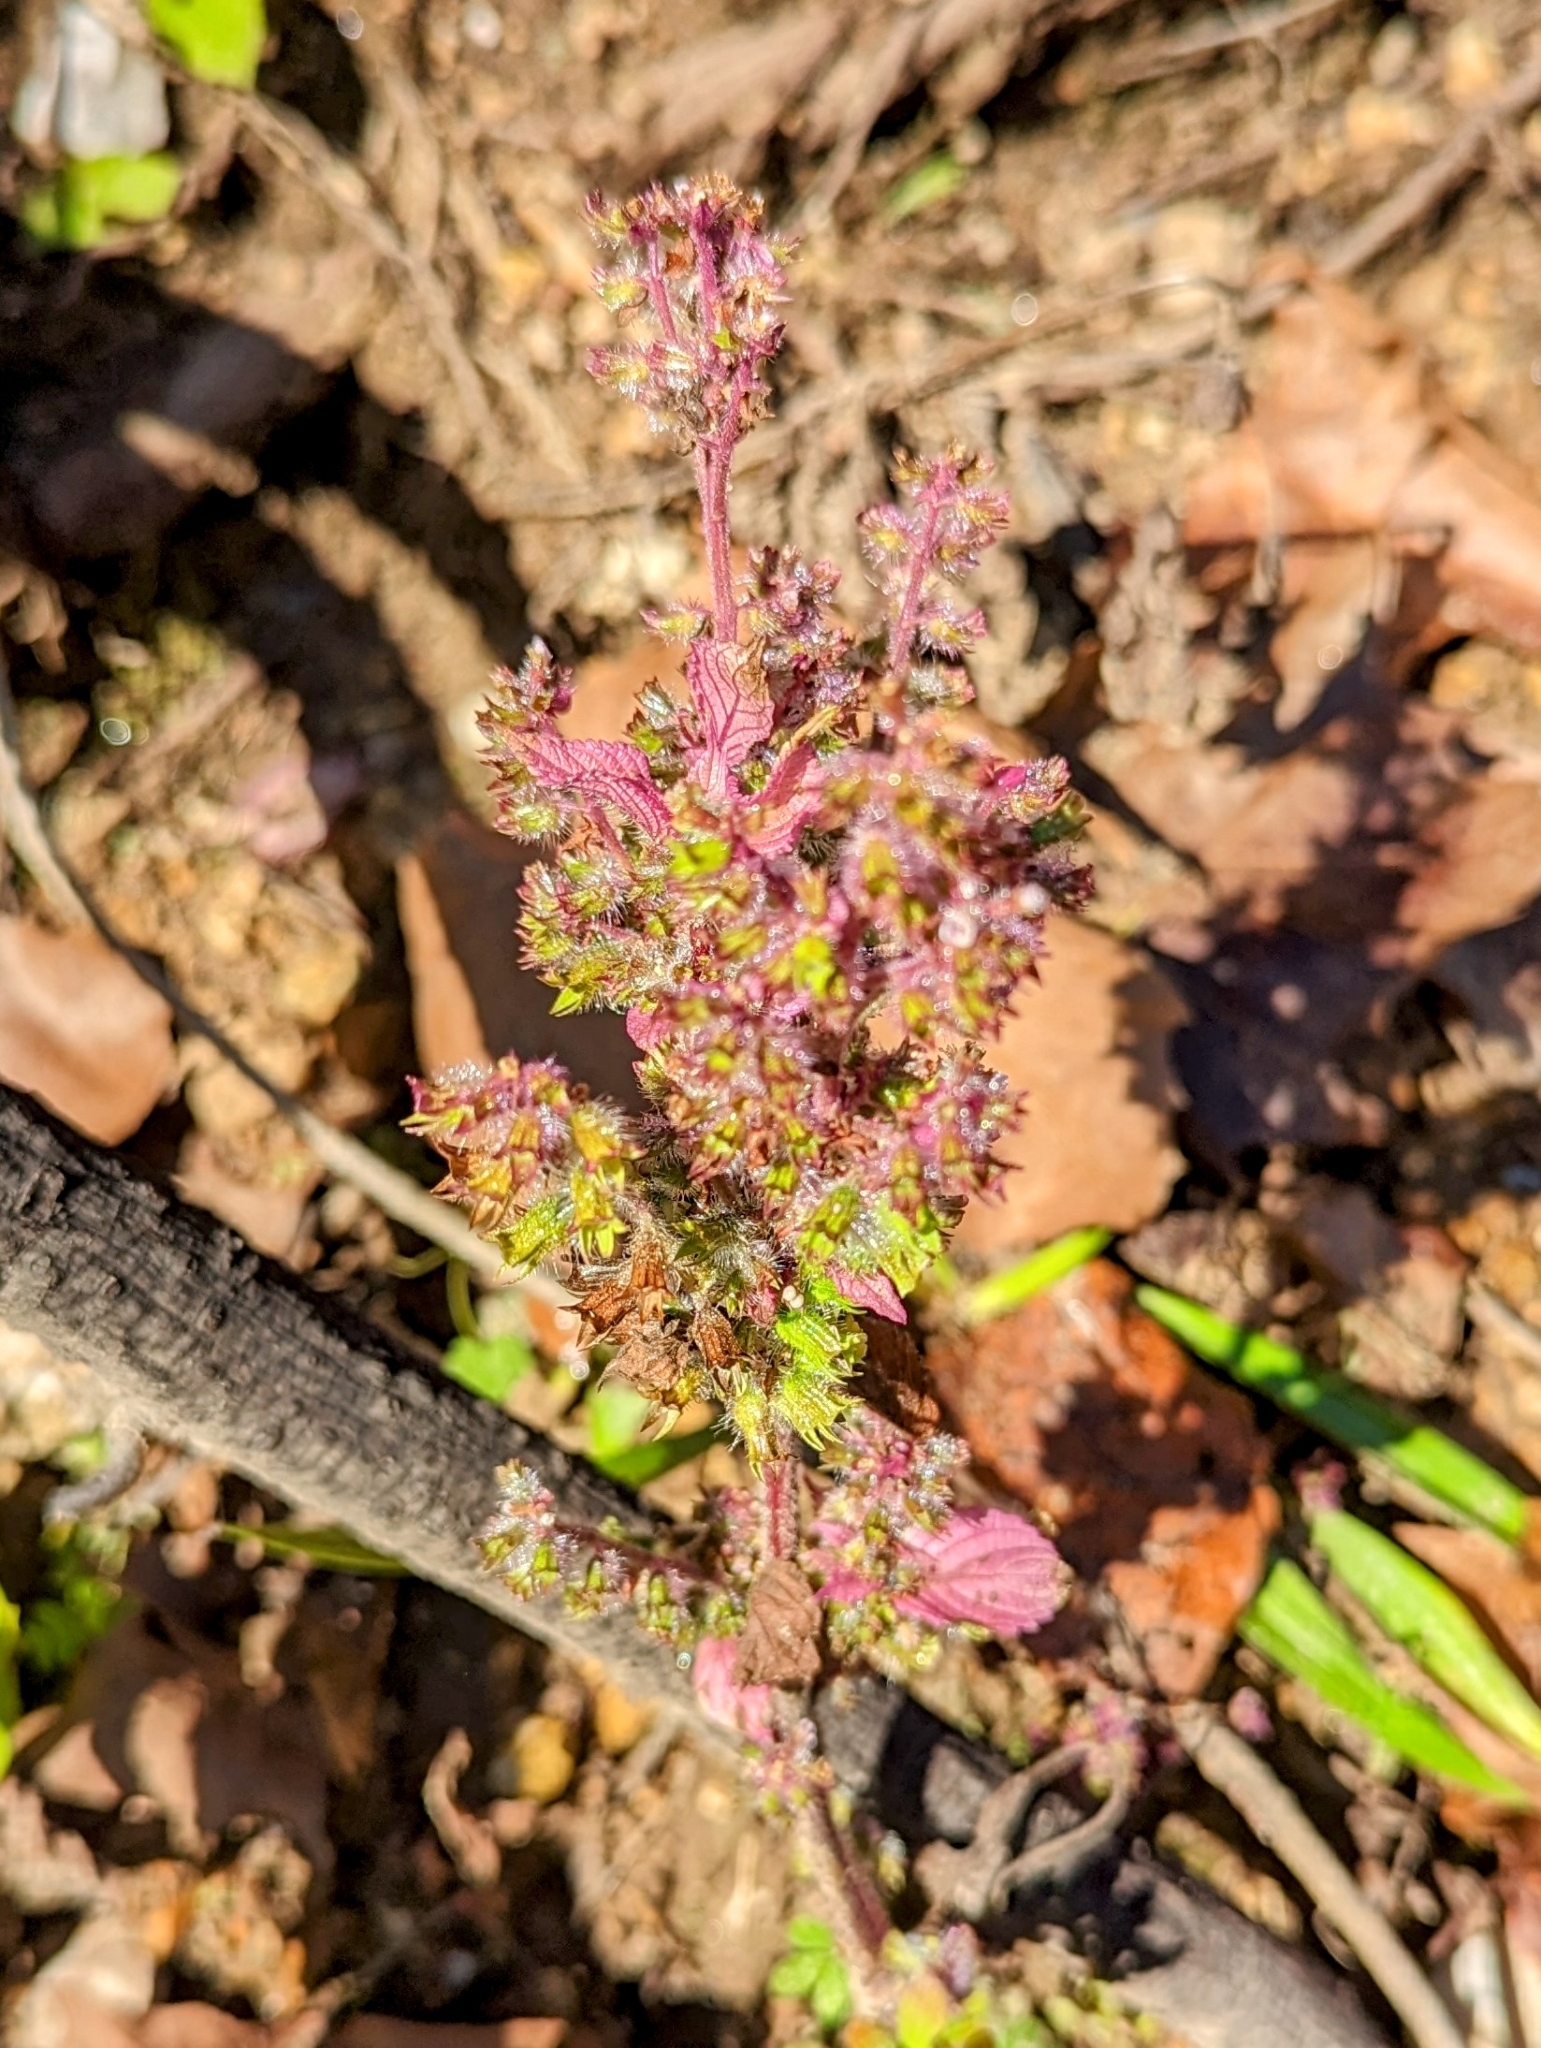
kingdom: Plantae
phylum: Tracheophyta
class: Magnoliopsida
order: Lamiales
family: Lamiaceae
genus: Perilla
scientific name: Perilla frutescens
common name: Perilla
